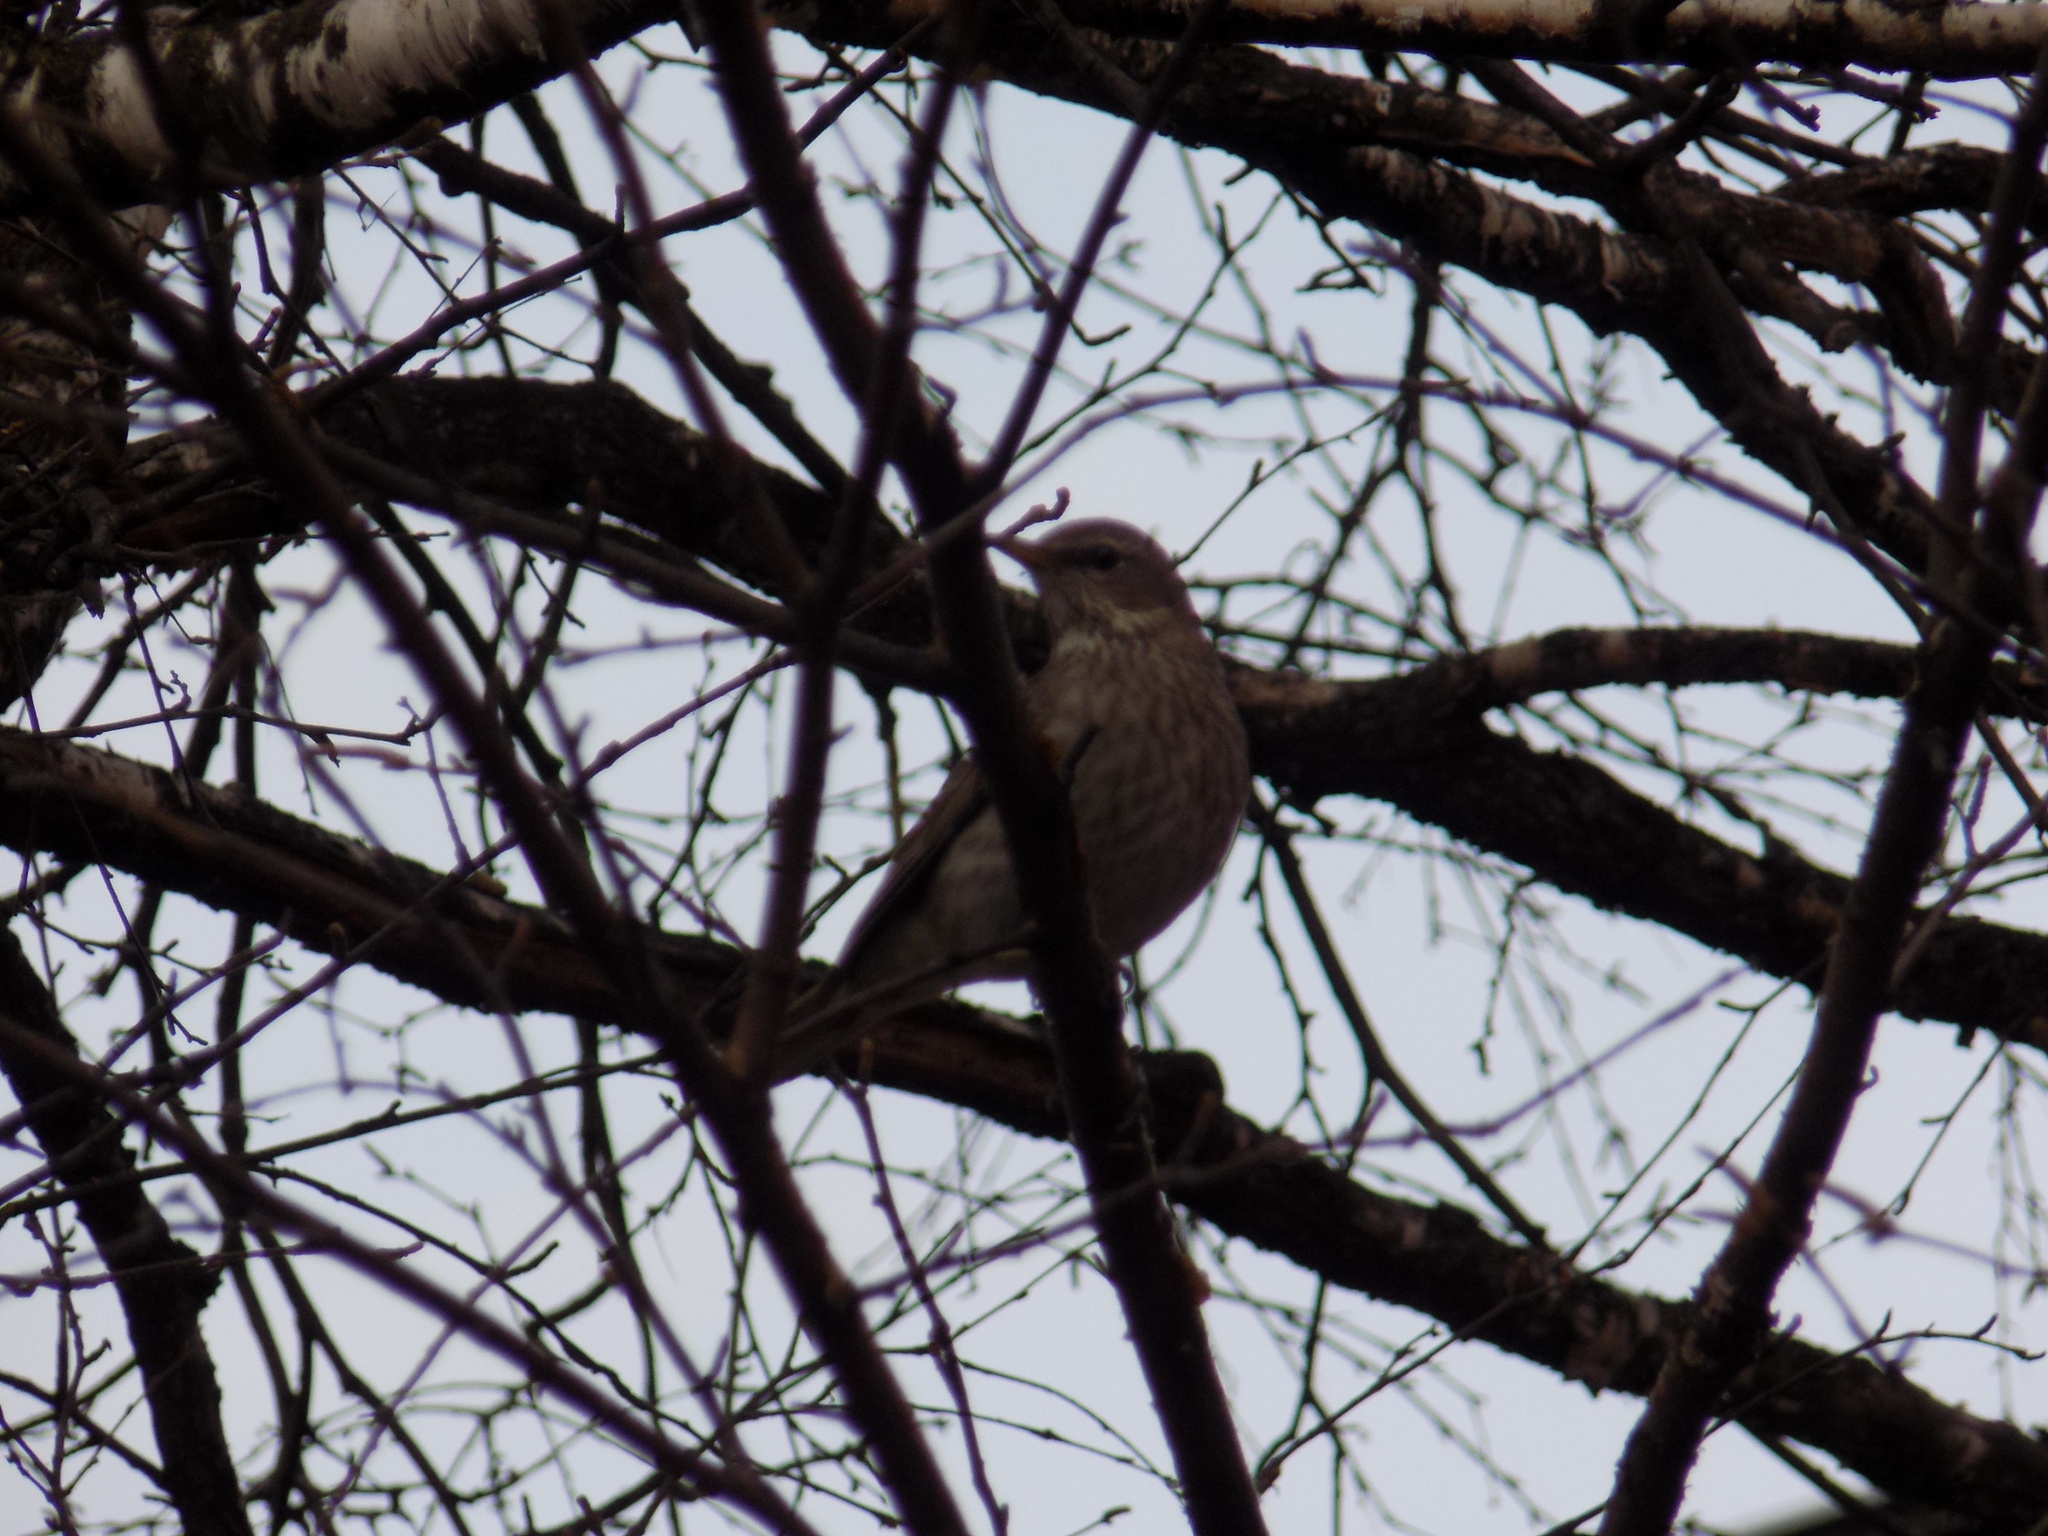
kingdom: Animalia
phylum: Chordata
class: Aves
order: Passeriformes
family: Turdidae
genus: Turdus
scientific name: Turdus atrogularis
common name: Black-throated thrush
